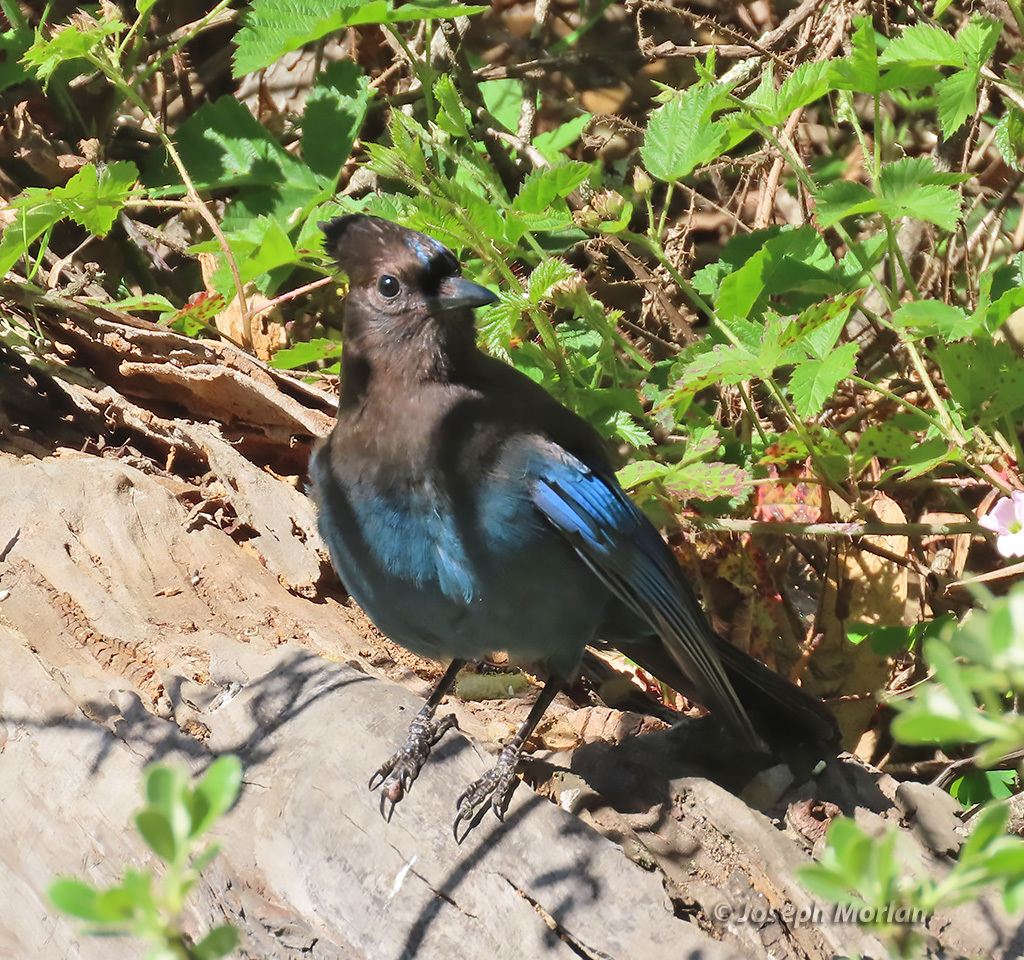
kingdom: Animalia
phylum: Chordata
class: Aves
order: Passeriformes
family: Corvidae
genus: Cyanocitta
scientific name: Cyanocitta stelleri
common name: Steller's jay
